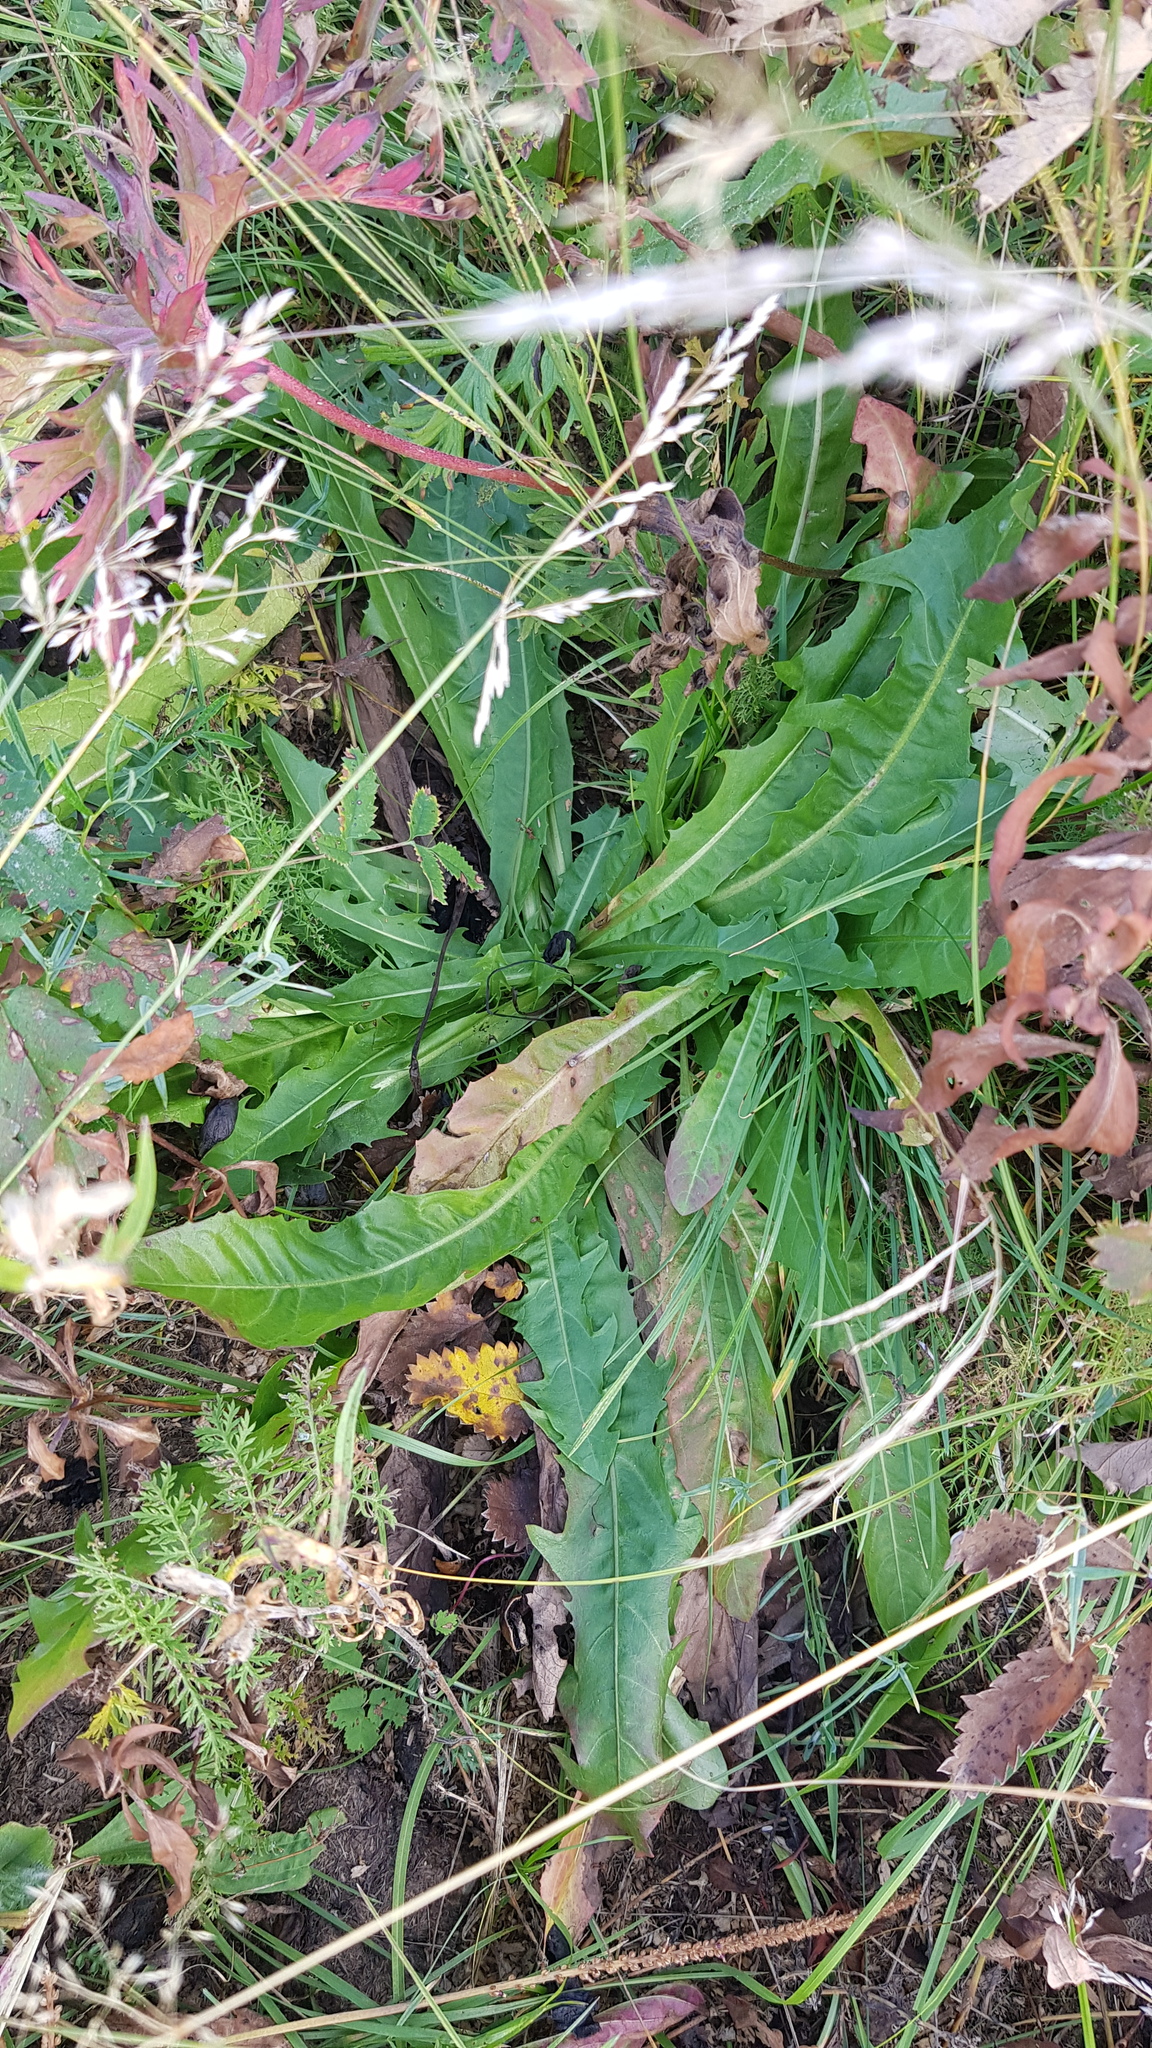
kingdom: Plantae
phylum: Tracheophyta
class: Magnoliopsida
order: Asterales
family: Asteraceae
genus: Taraxacum
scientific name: Taraxacum ceratophorum
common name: Horn-bearing dandelion
